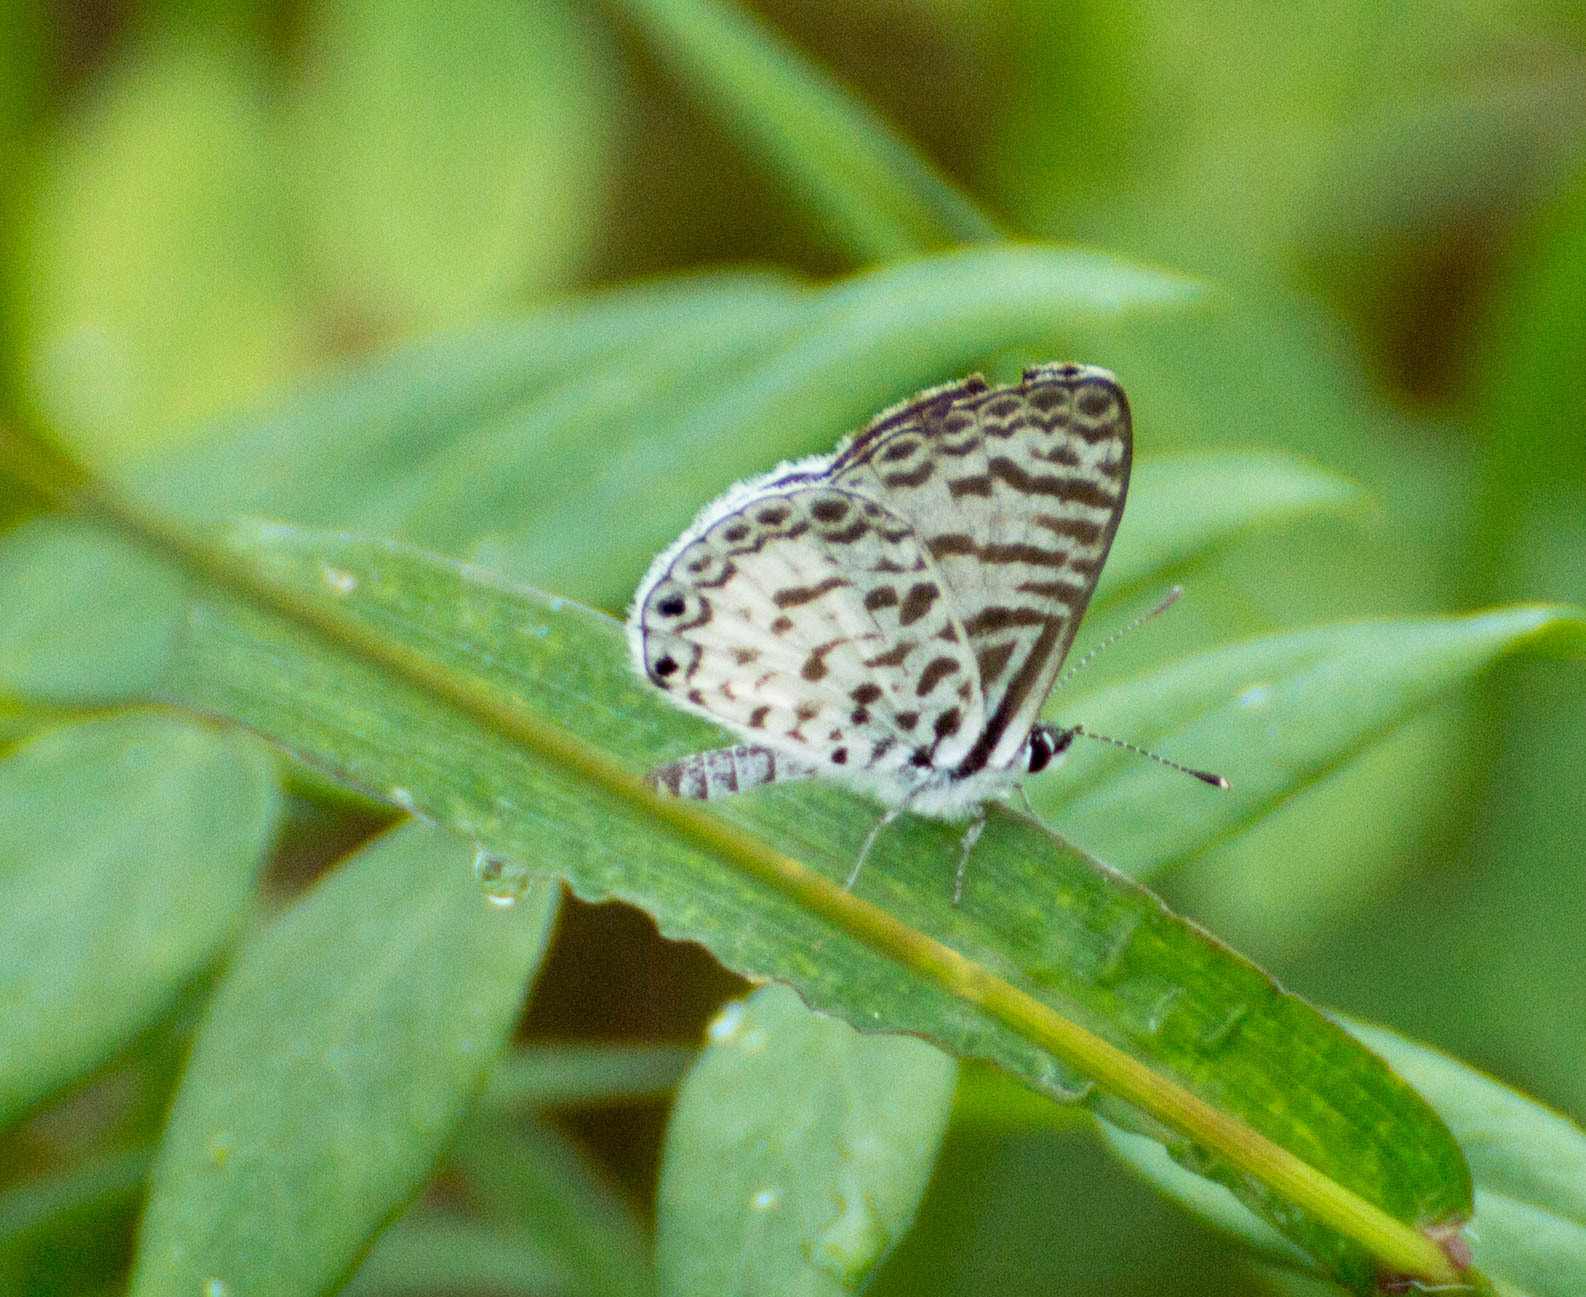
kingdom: Animalia
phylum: Arthropoda
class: Insecta
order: Lepidoptera
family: Lycaenidae
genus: Leptotes
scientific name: Leptotes cassius
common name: Cassius blue
